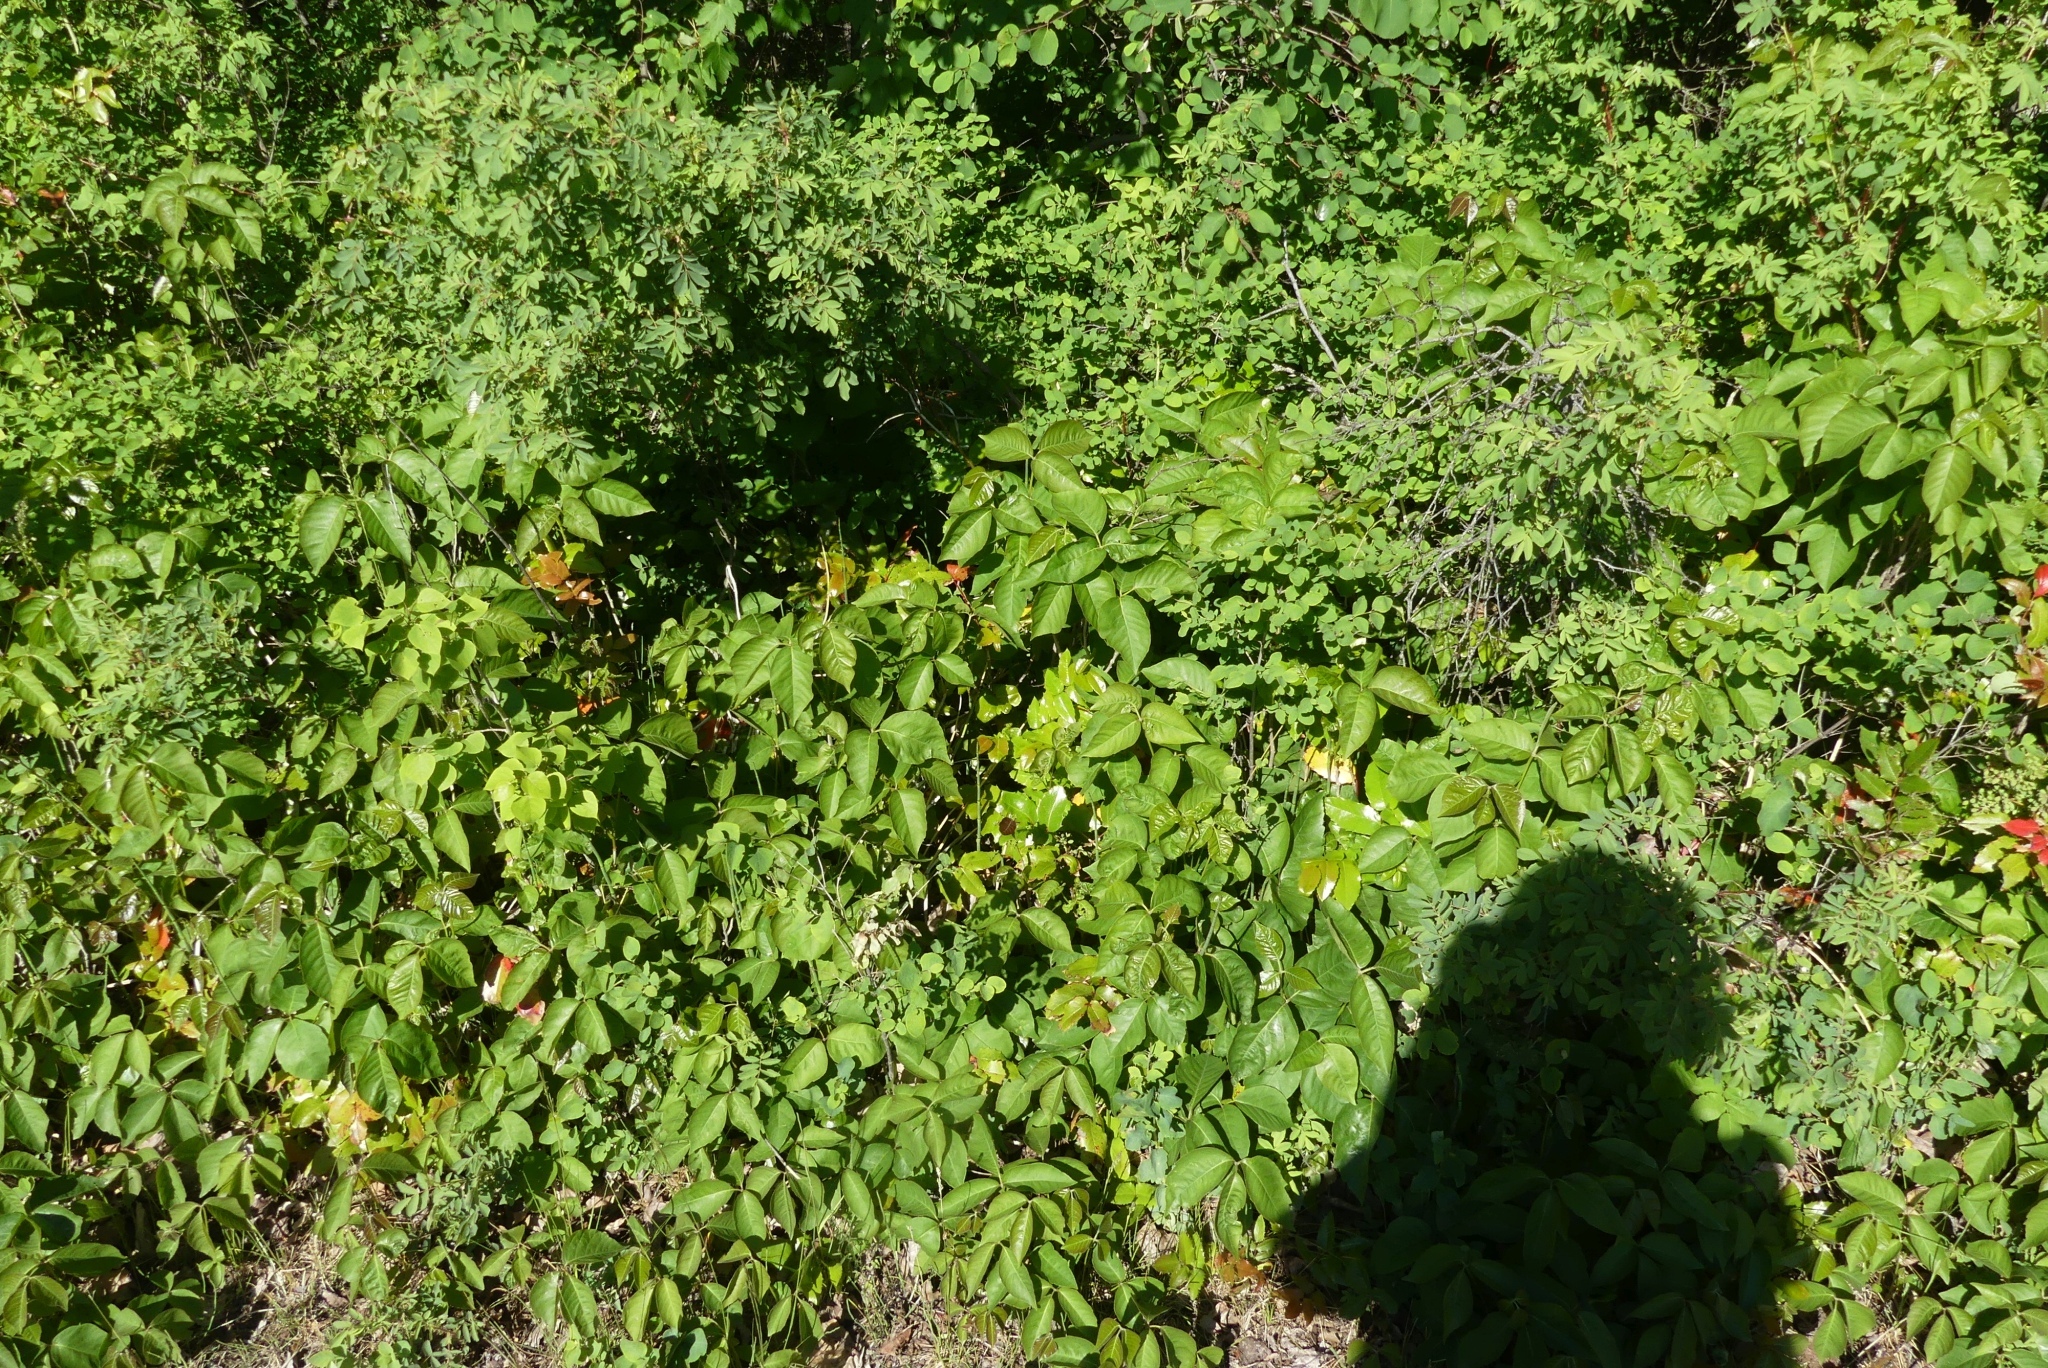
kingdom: Plantae
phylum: Tracheophyta
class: Magnoliopsida
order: Sapindales
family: Anacardiaceae
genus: Toxicodendron
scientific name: Toxicodendron rydbergii
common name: Rydberg's poison-ivy
